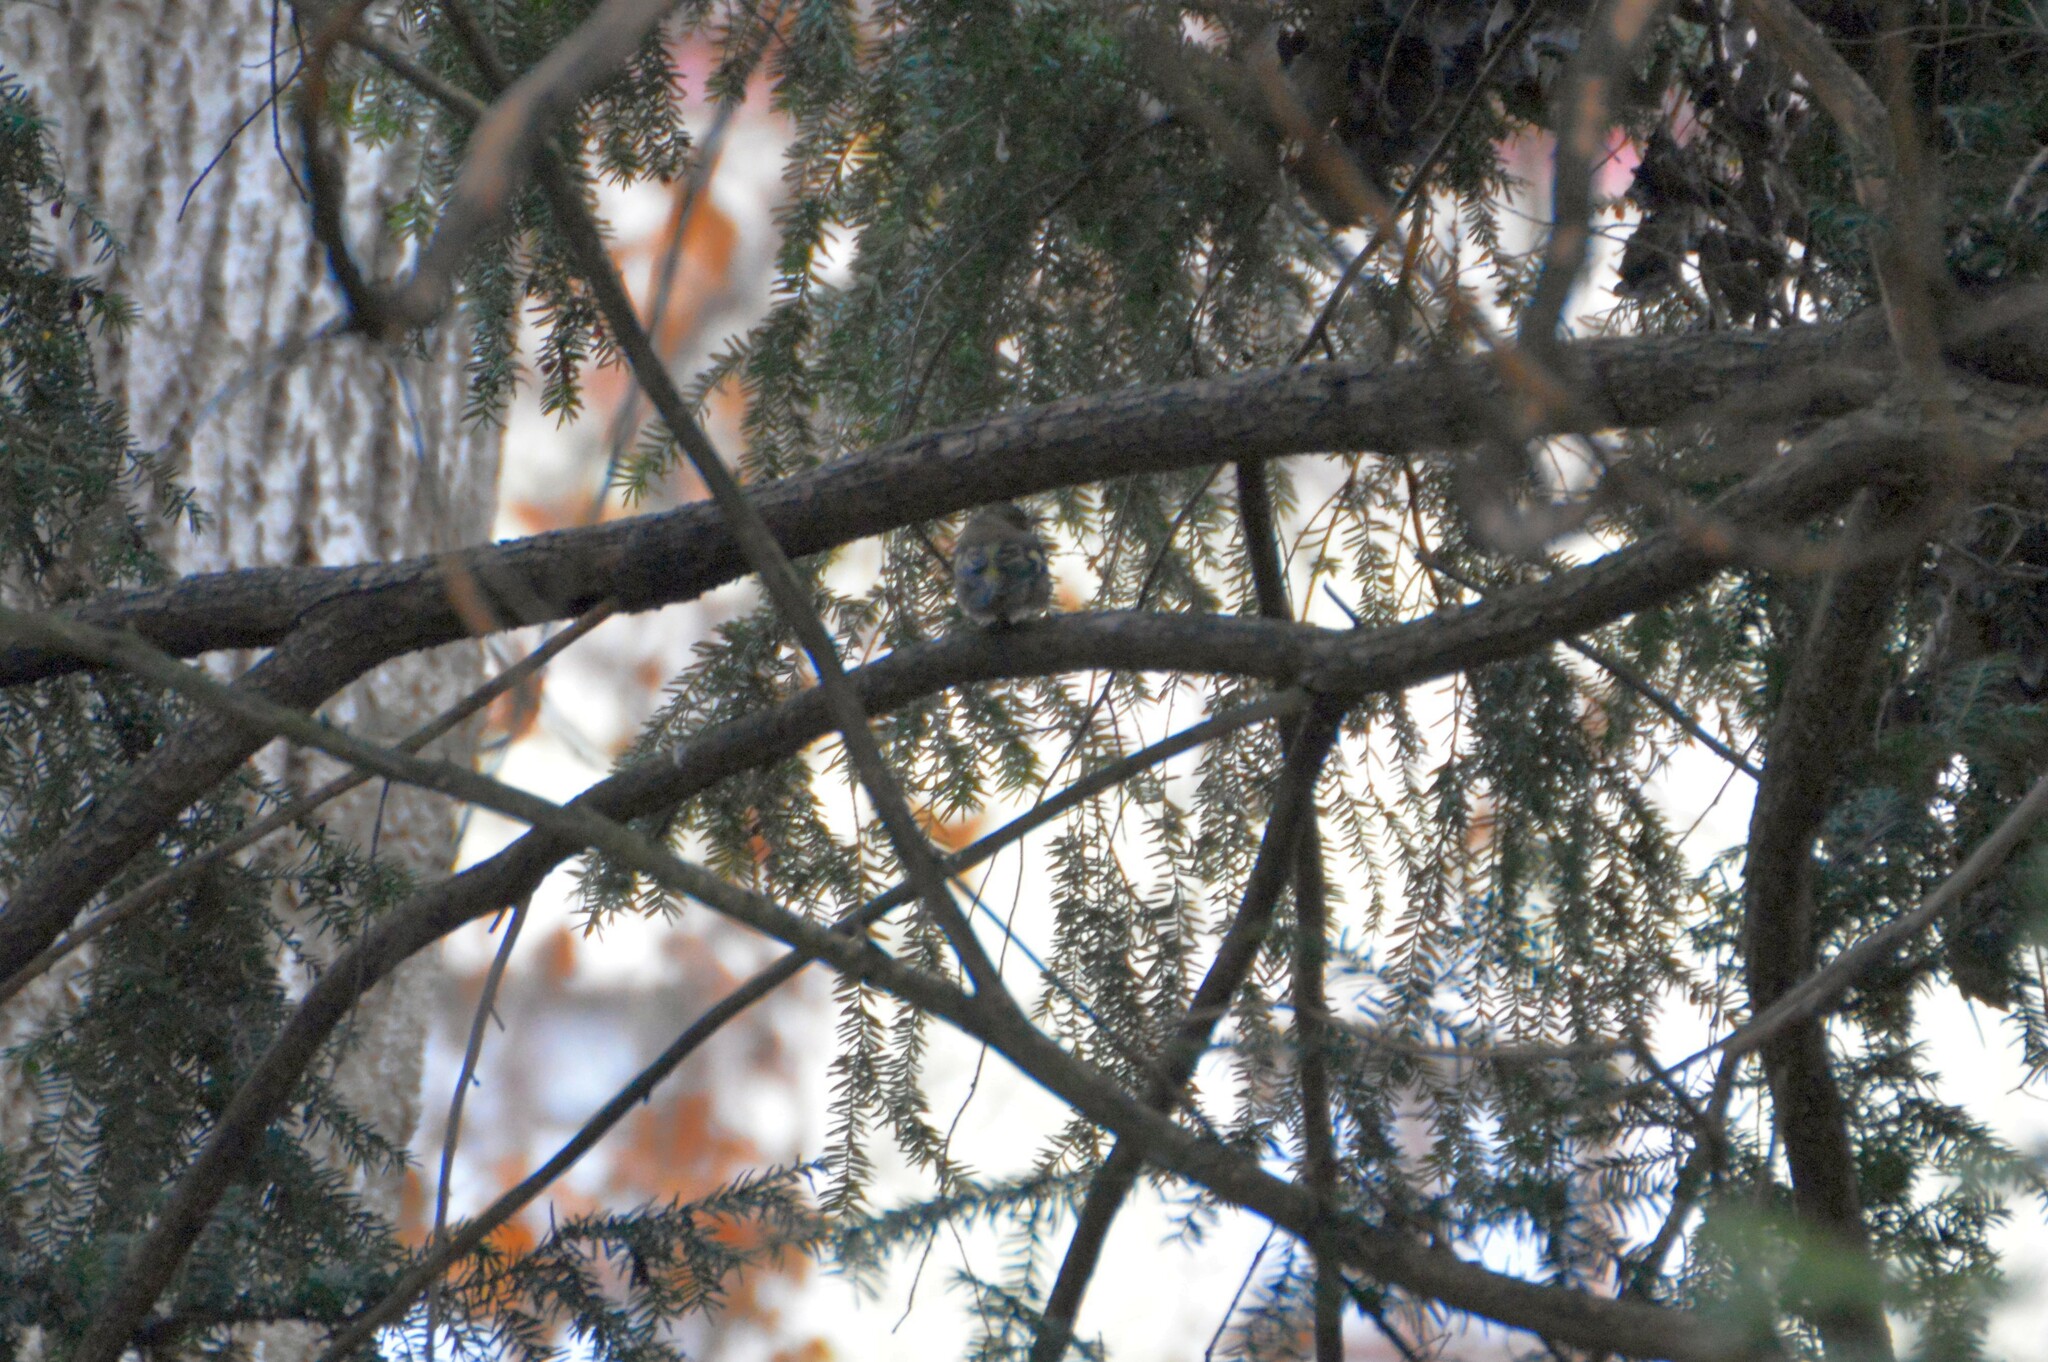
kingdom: Animalia
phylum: Chordata
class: Aves
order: Passeriformes
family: Fringillidae
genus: Fringilla
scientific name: Fringilla coelebs
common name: Common chaffinch
